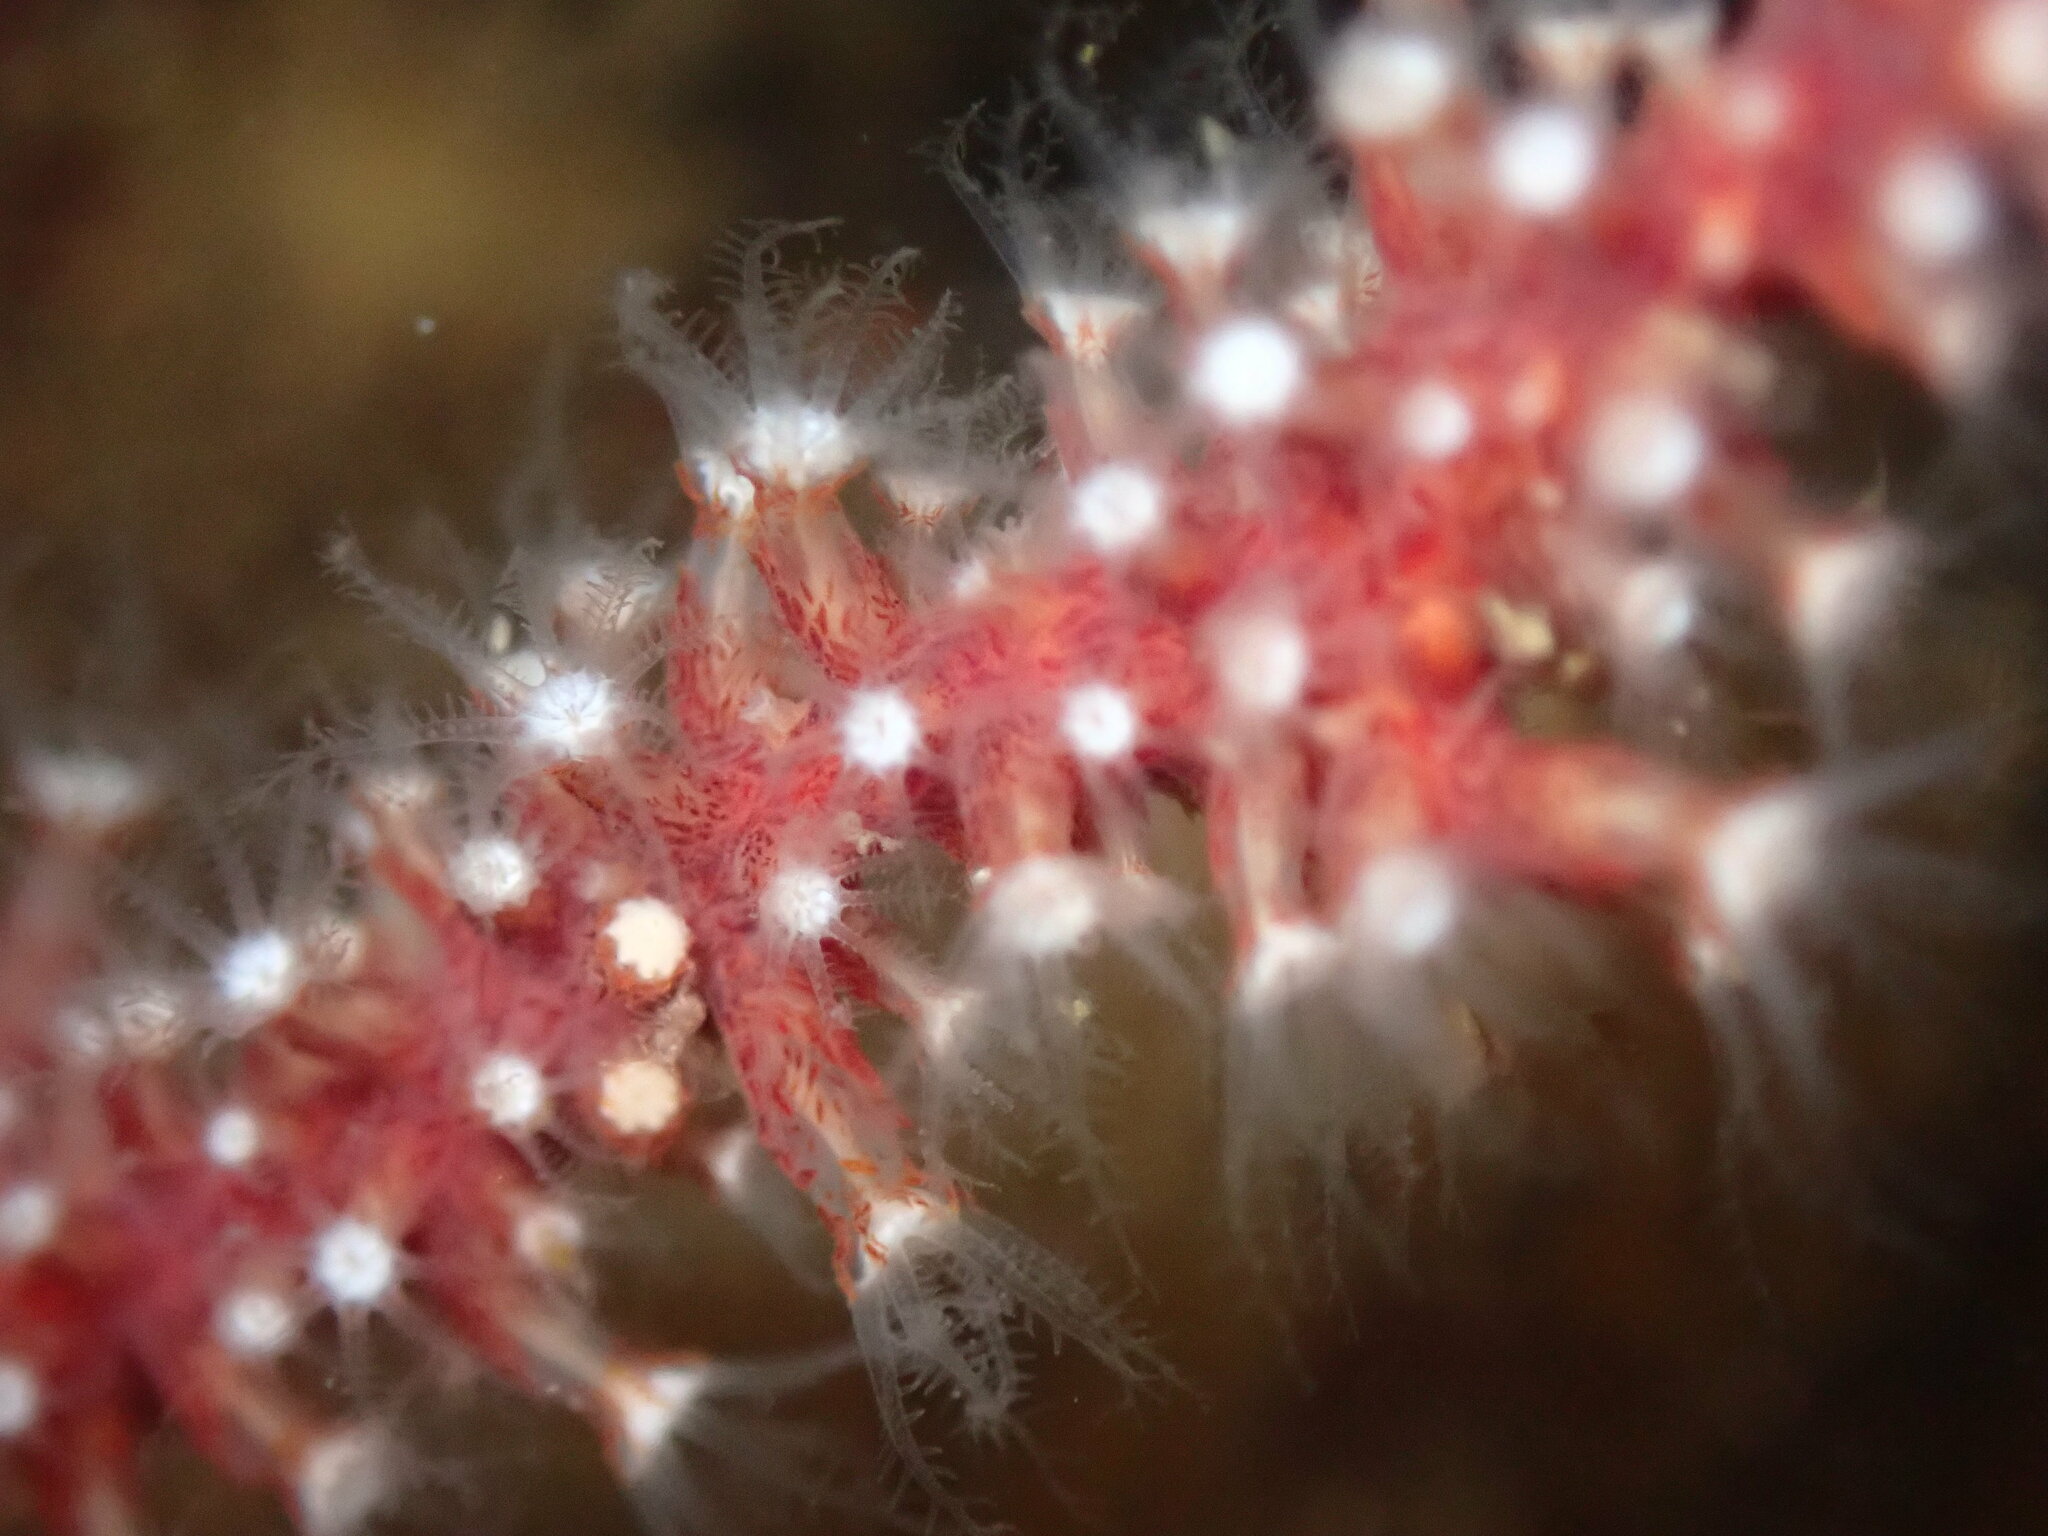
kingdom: Animalia
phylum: Cnidaria
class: Anthozoa
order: Malacalcyonacea
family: Plexauridae
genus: Muricea
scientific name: Muricea fruticosa
